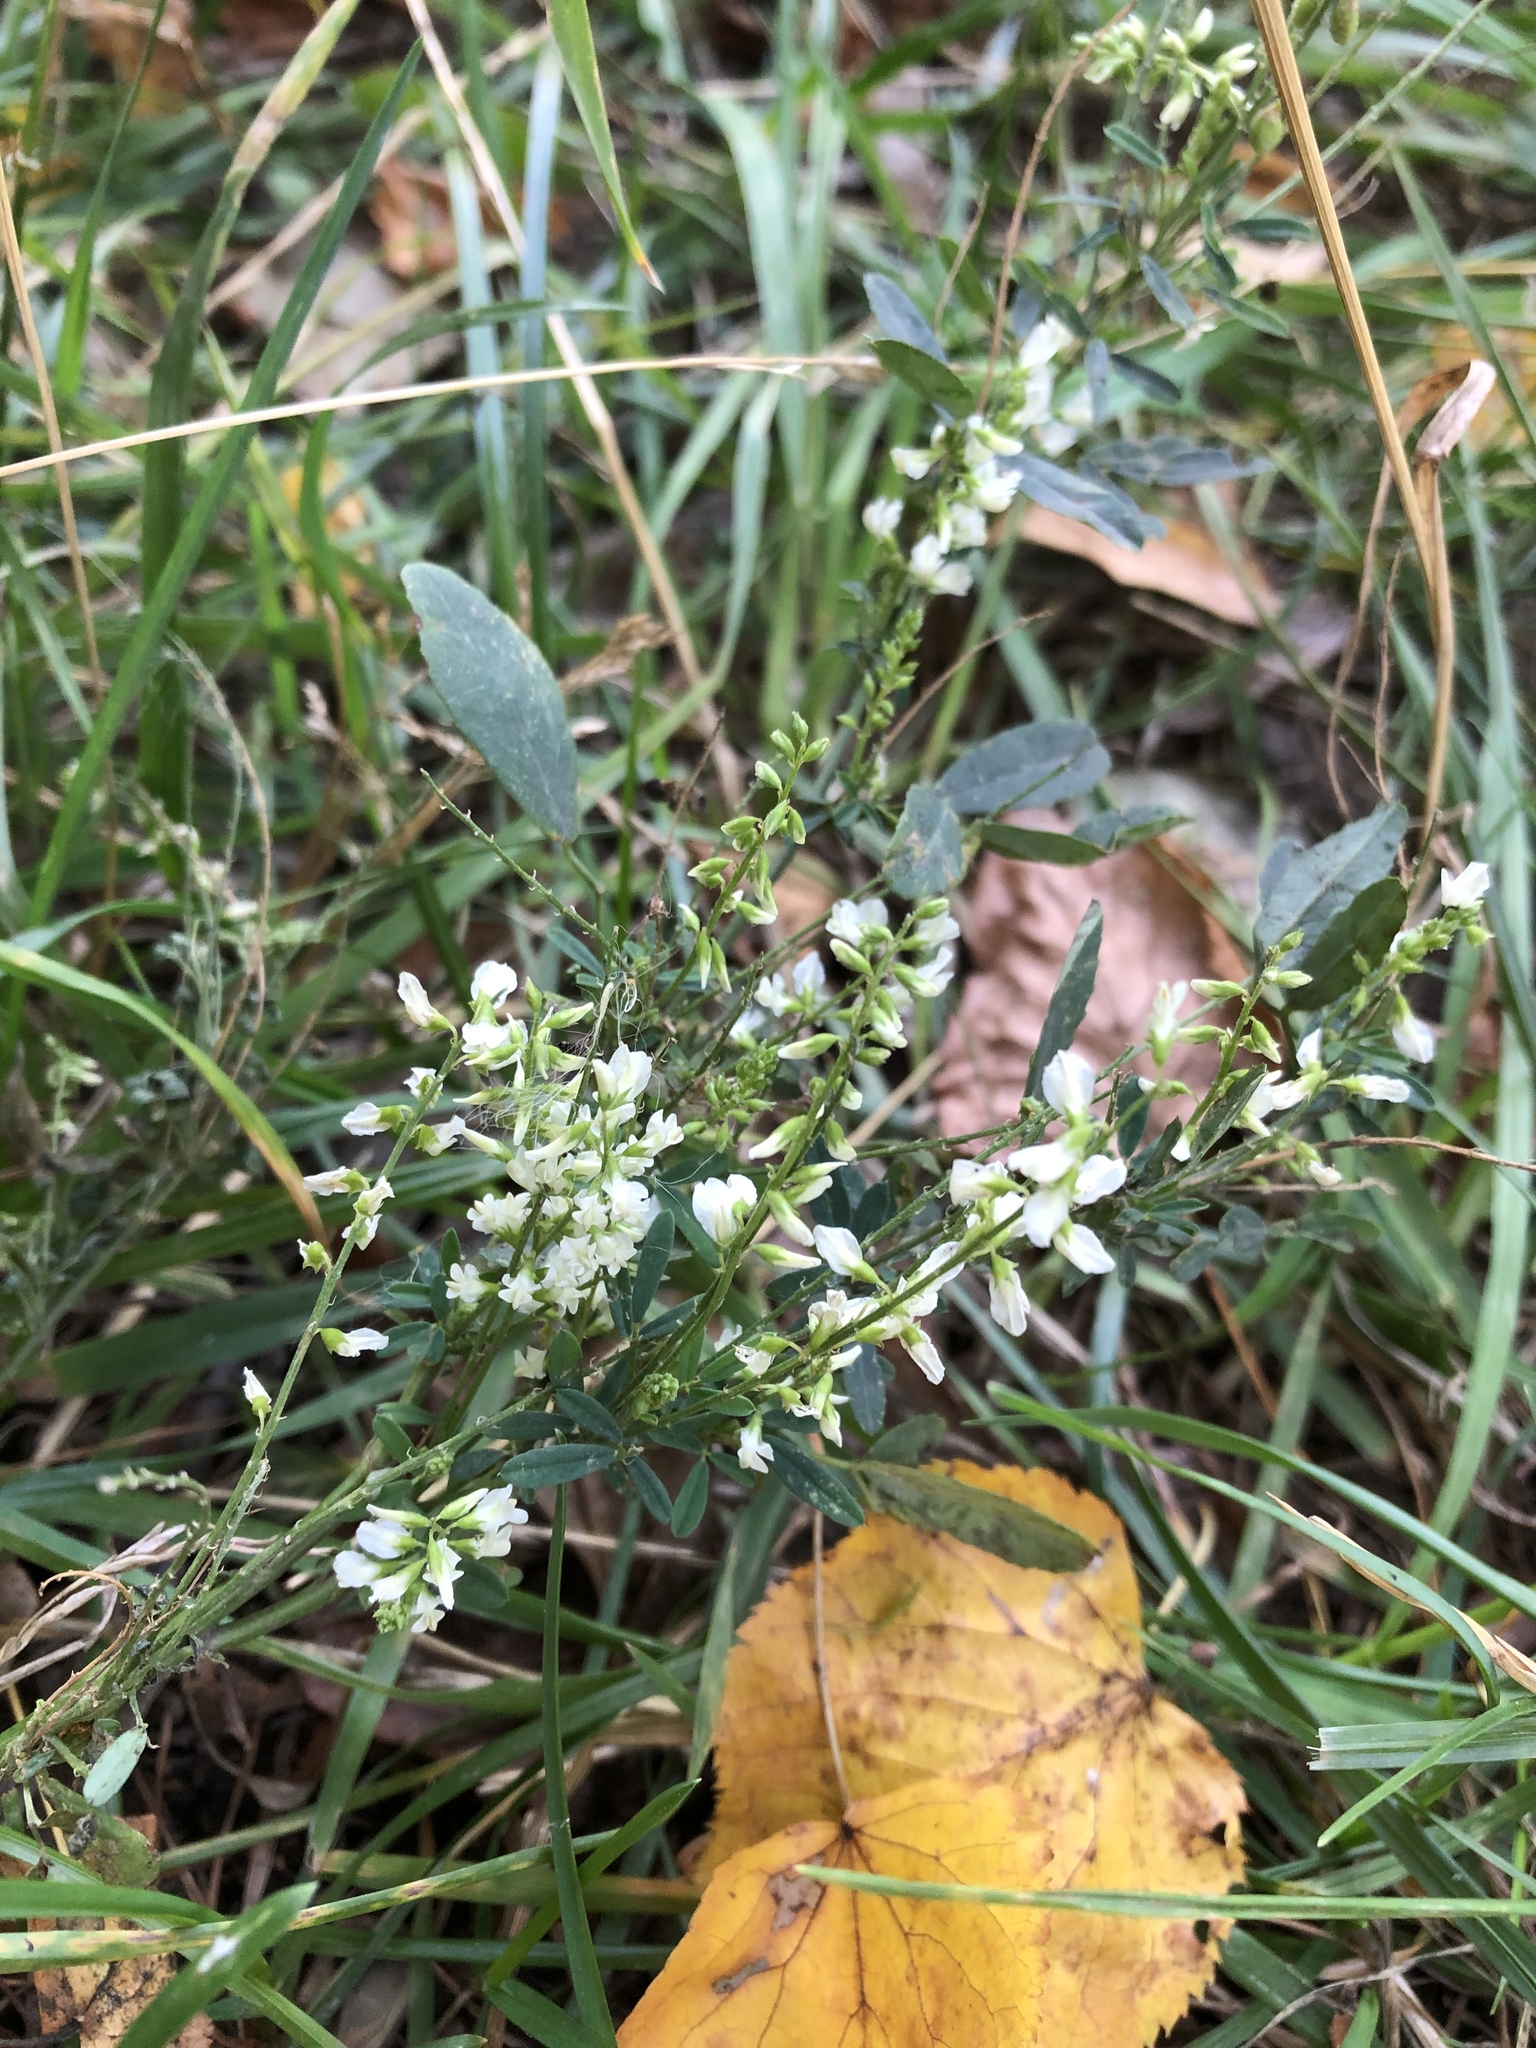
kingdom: Plantae
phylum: Tracheophyta
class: Magnoliopsida
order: Fabales
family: Fabaceae
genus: Melilotus
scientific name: Melilotus albus
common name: White melilot
